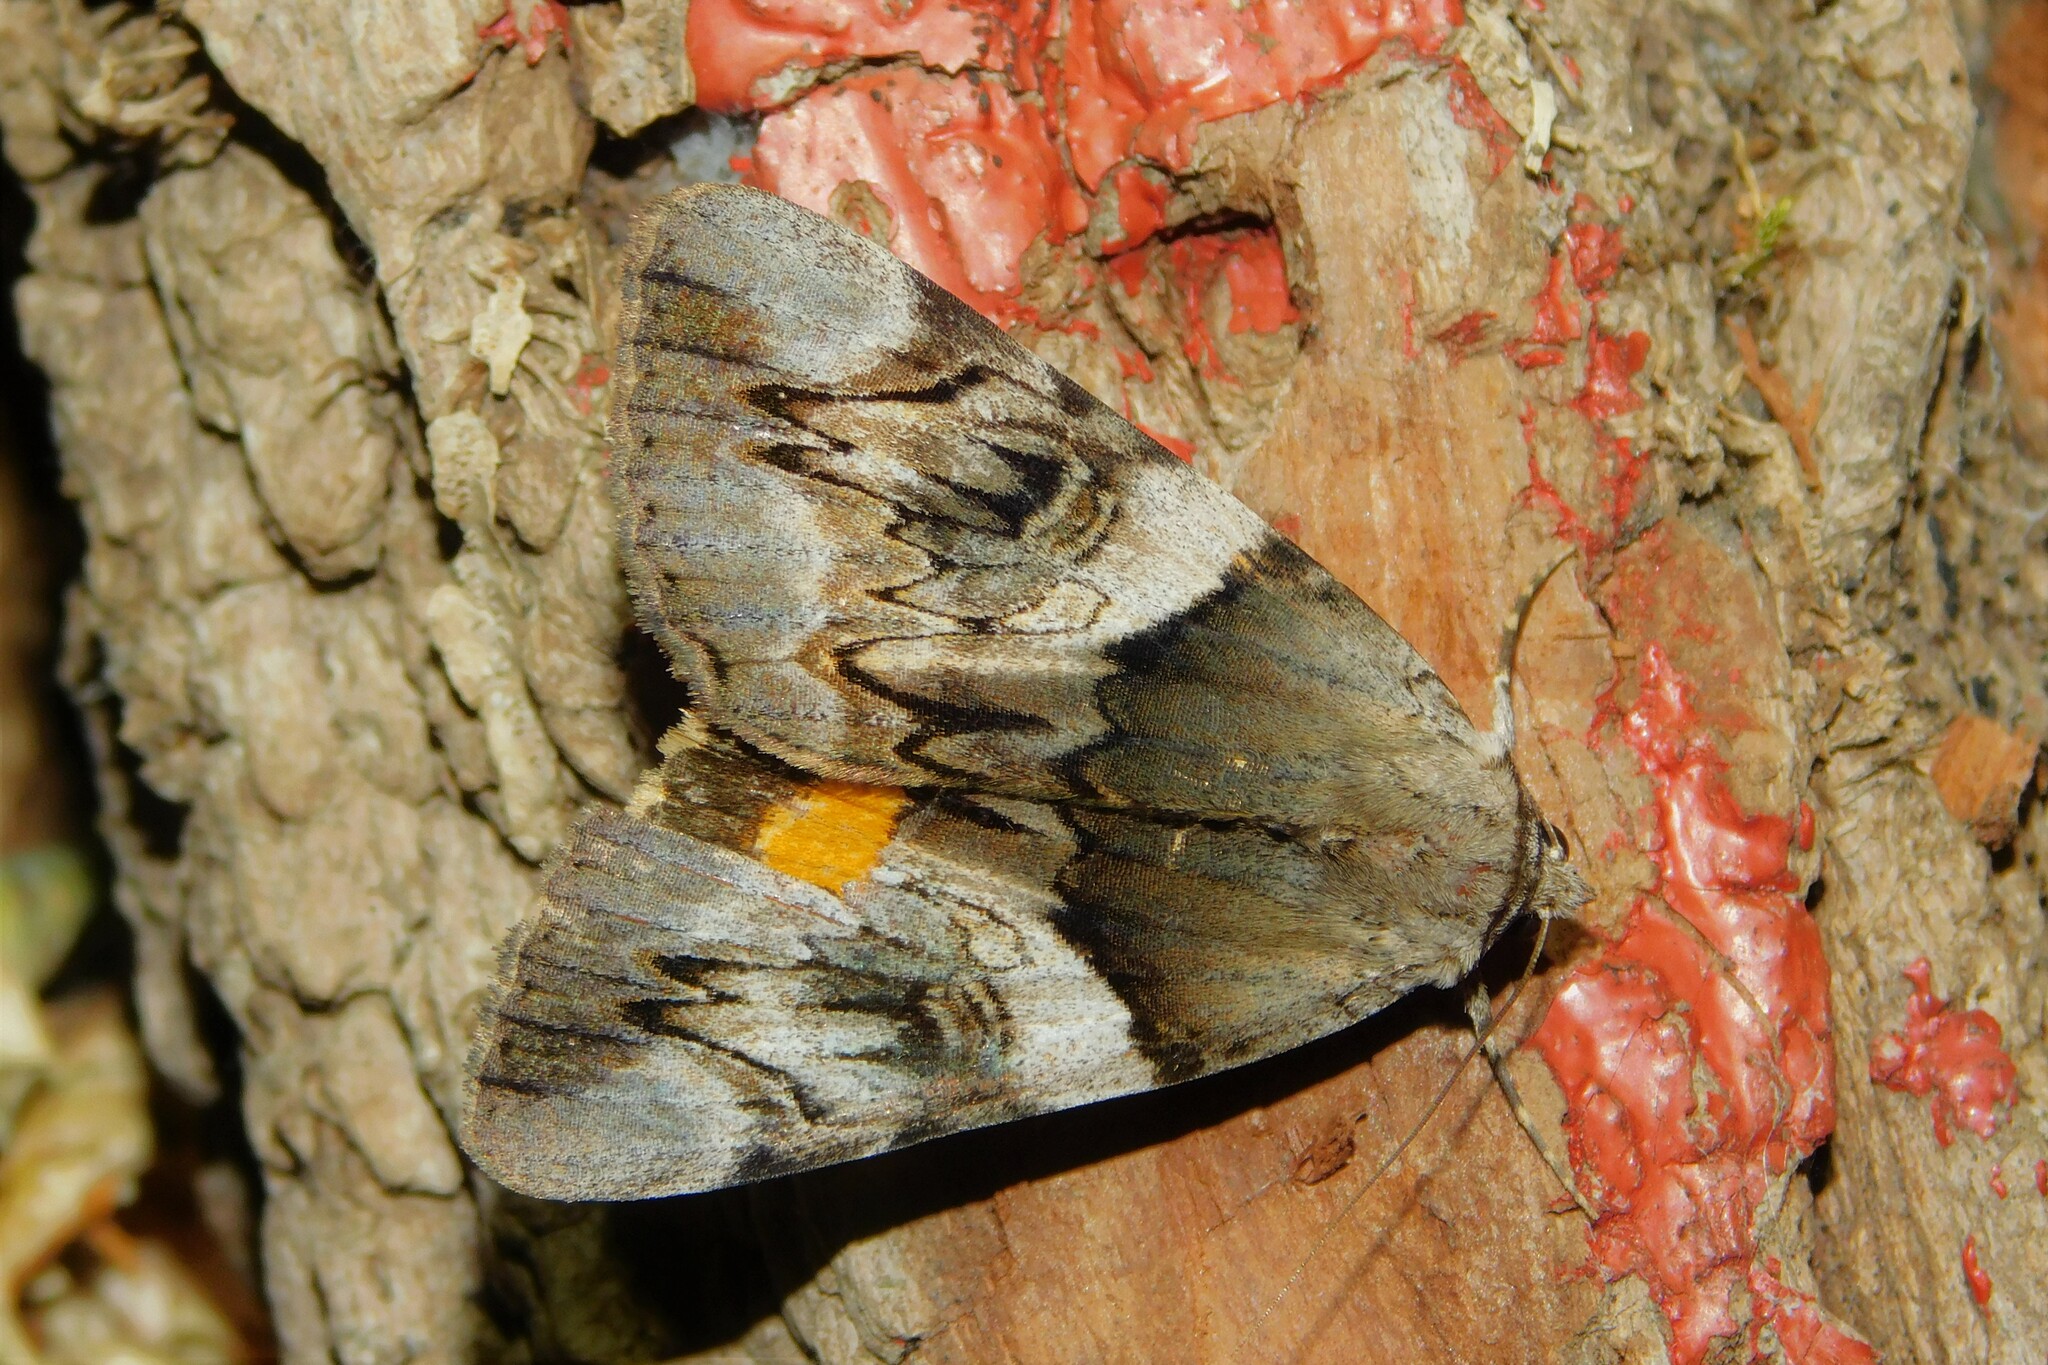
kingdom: Animalia
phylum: Arthropoda
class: Insecta
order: Lepidoptera
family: Erebidae
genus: Catocala
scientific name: Catocala fulminea
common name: Yellow bands underwing
